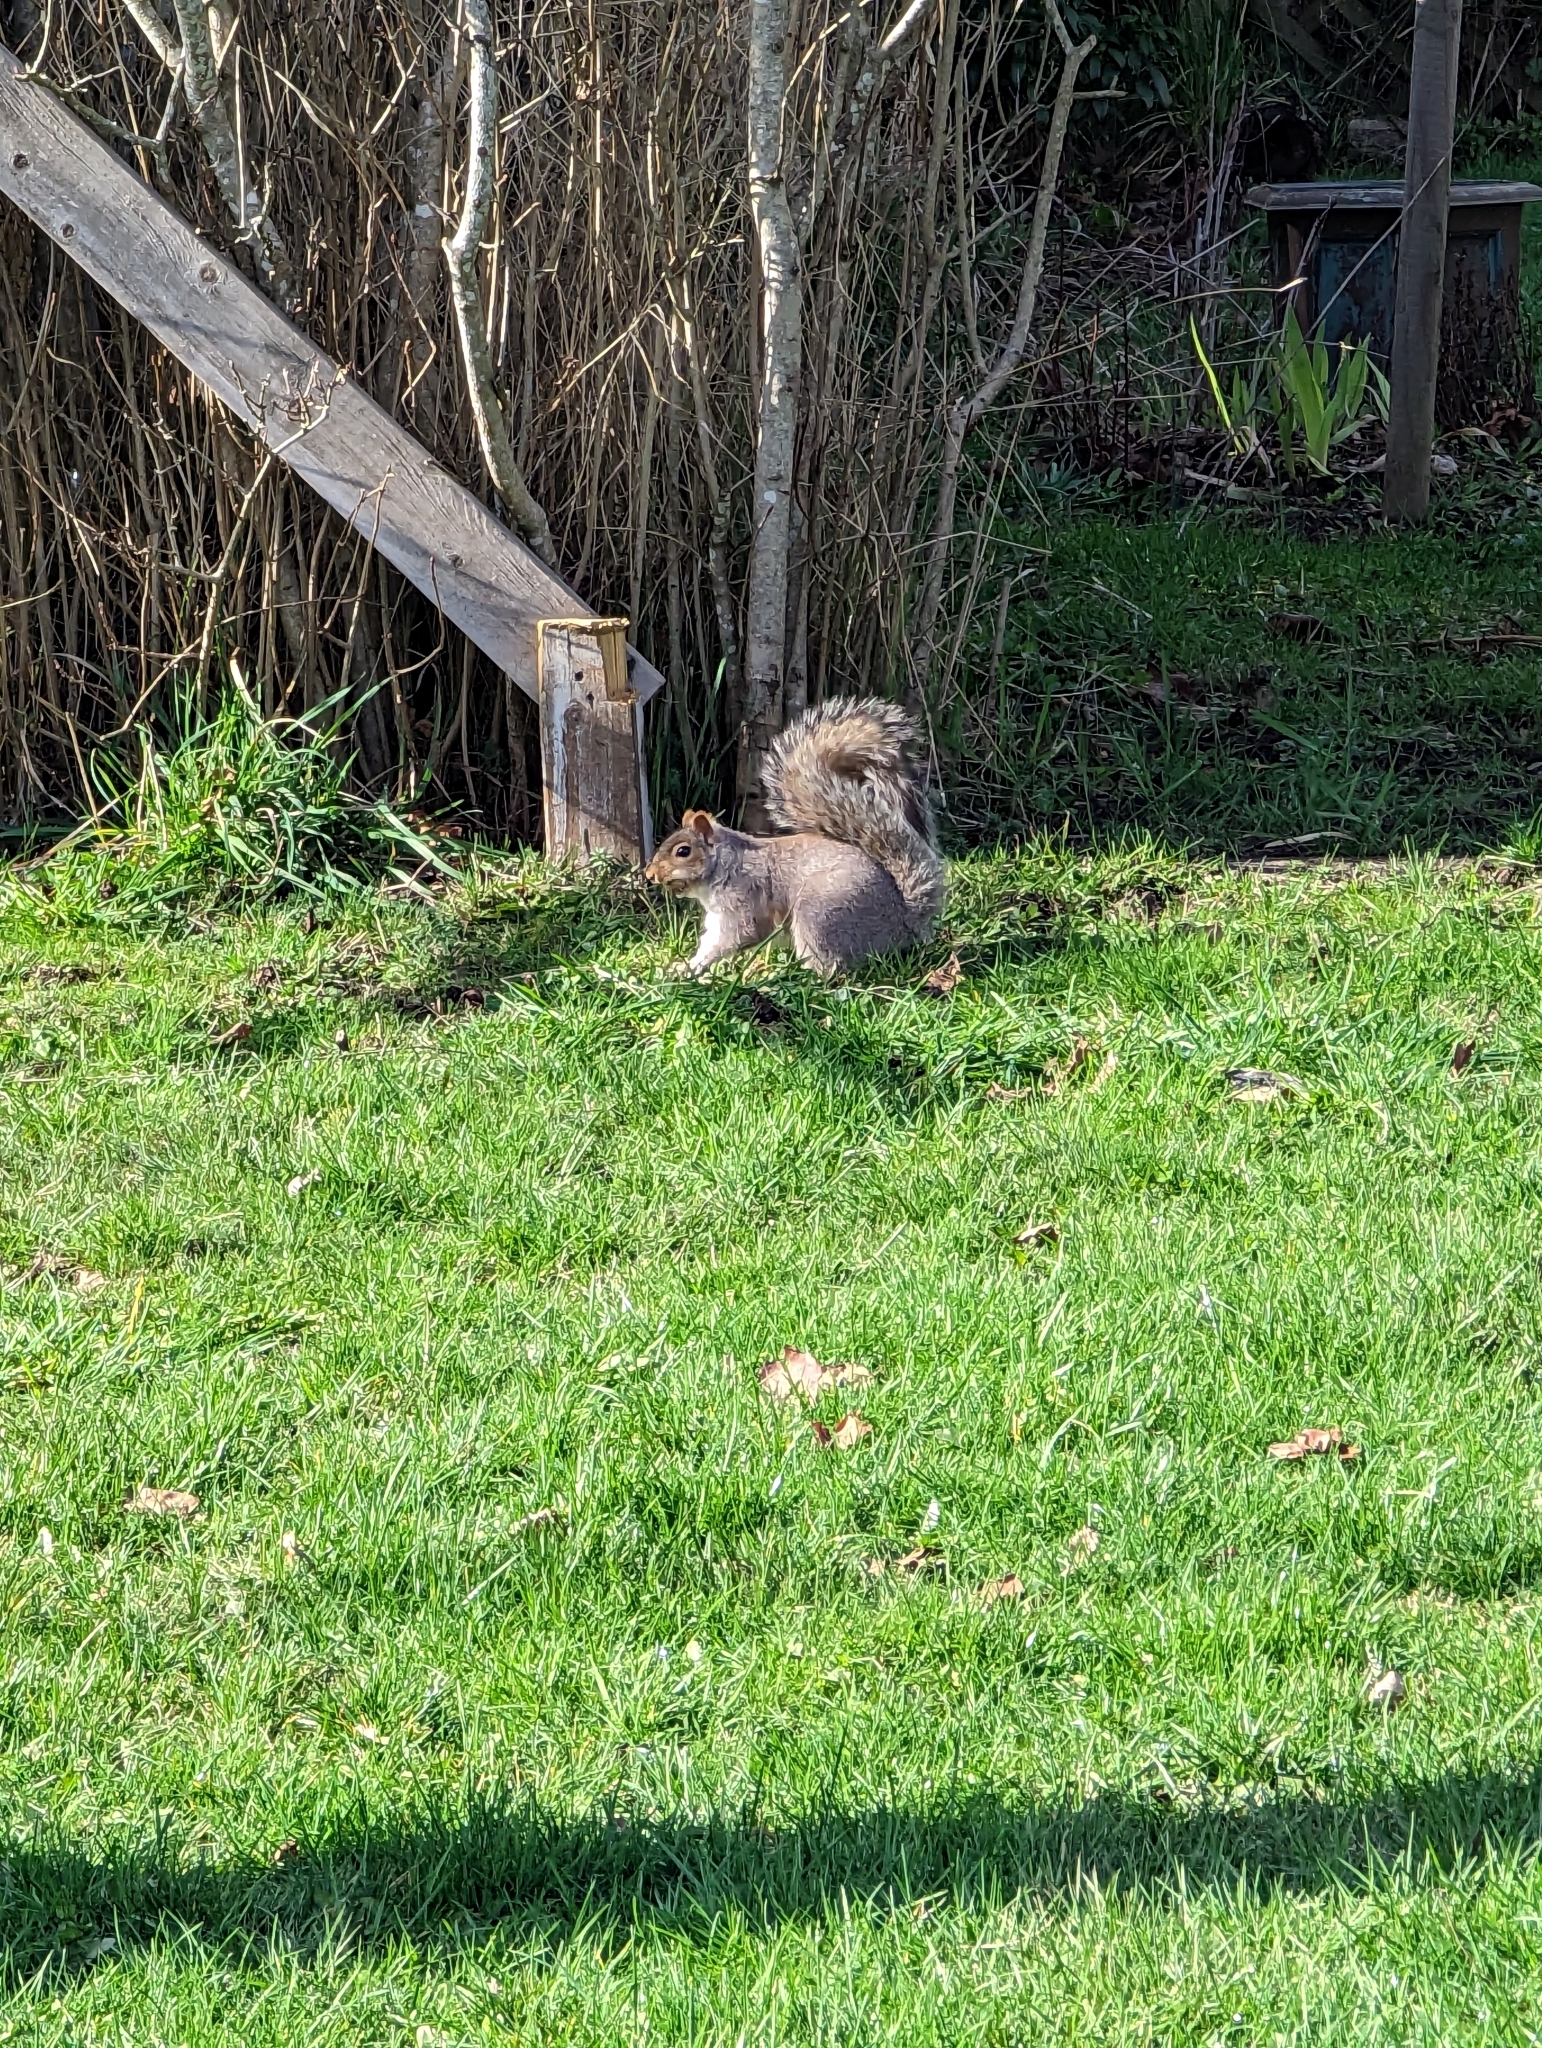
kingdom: Animalia
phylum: Chordata
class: Mammalia
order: Rodentia
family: Sciuridae
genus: Sciurus
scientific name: Sciurus carolinensis
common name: Eastern gray squirrel
